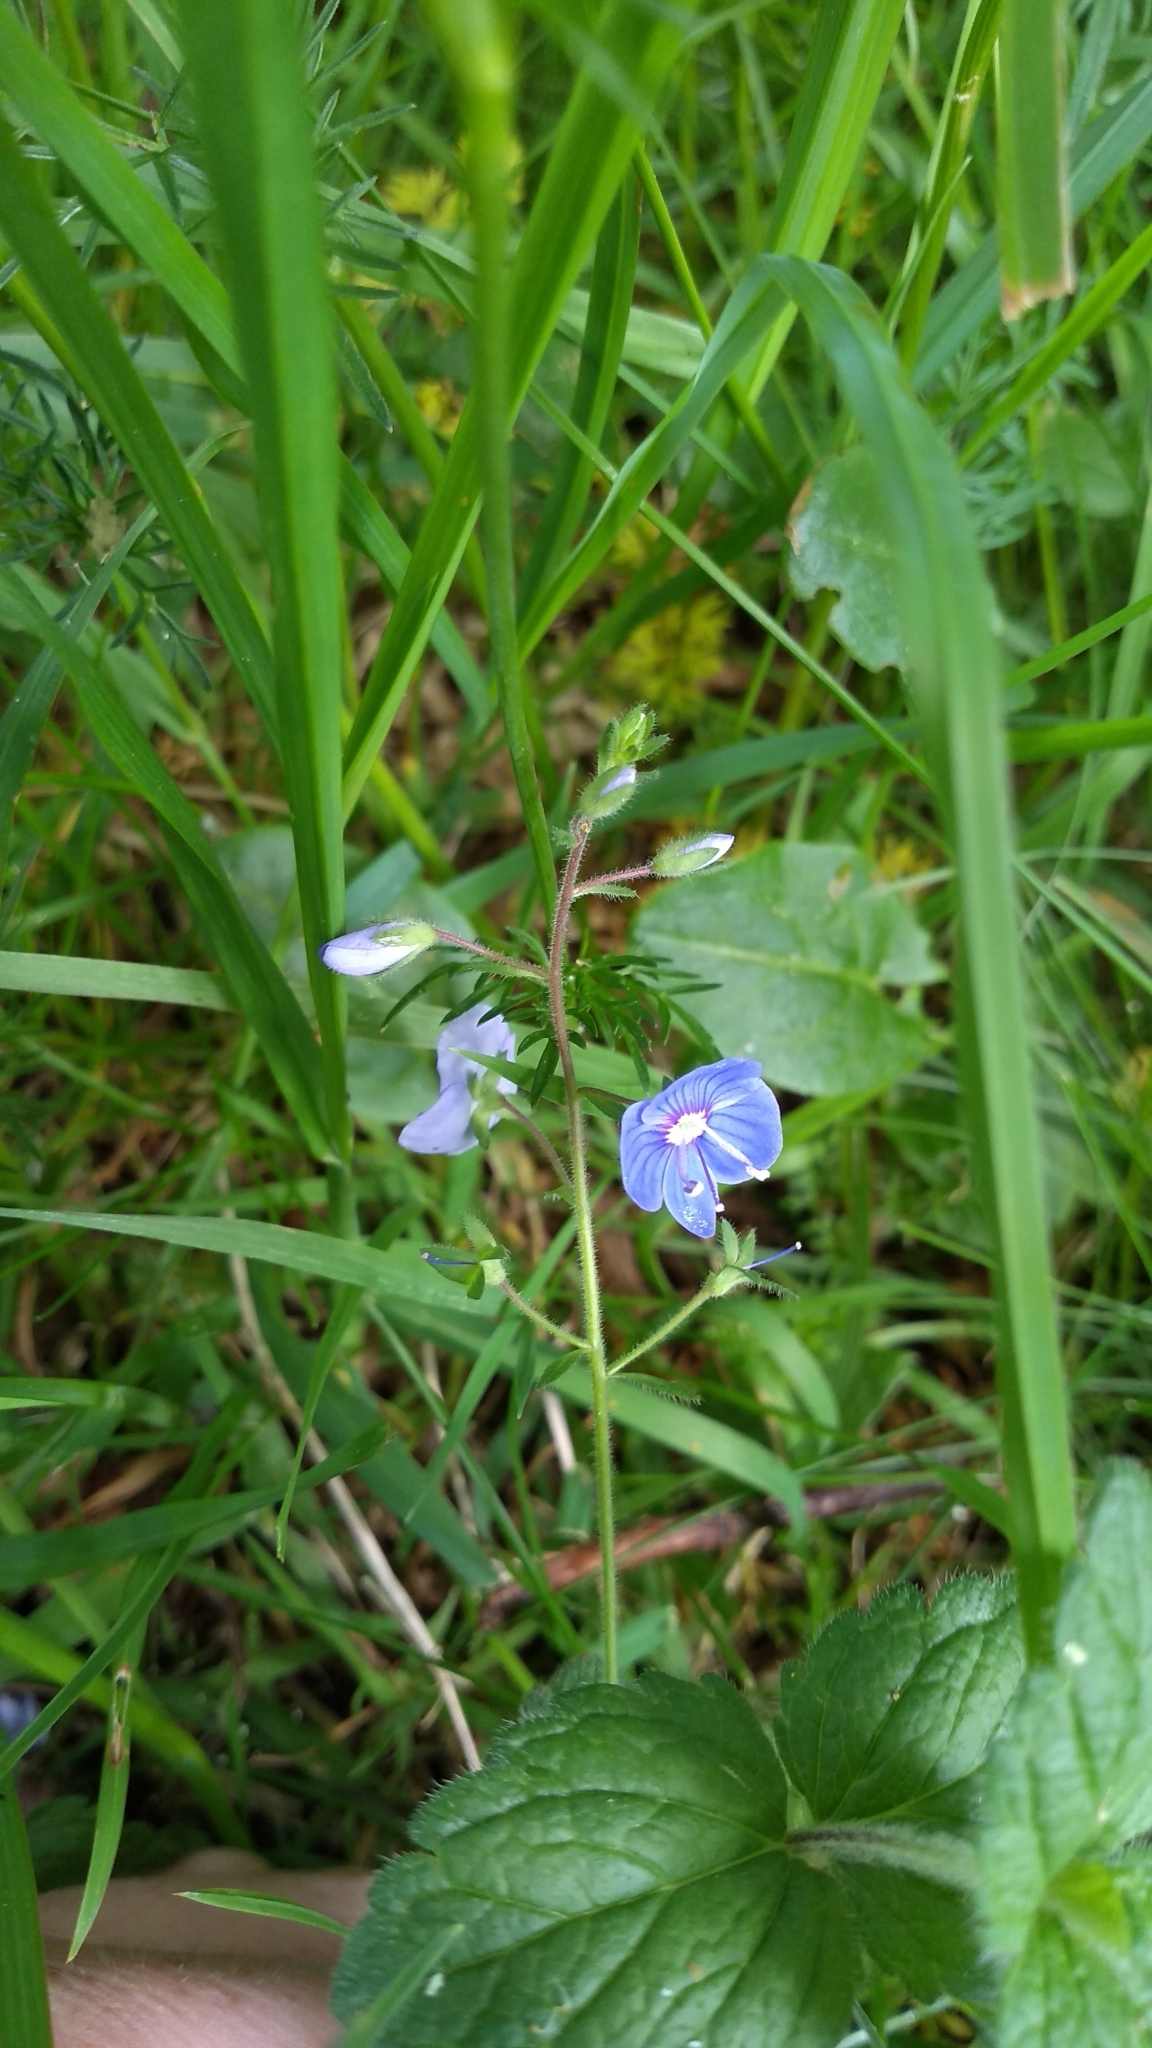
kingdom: Plantae
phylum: Tracheophyta
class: Magnoliopsida
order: Lamiales
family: Plantaginaceae
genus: Veronica
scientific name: Veronica chamaedrys
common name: Germander speedwell
